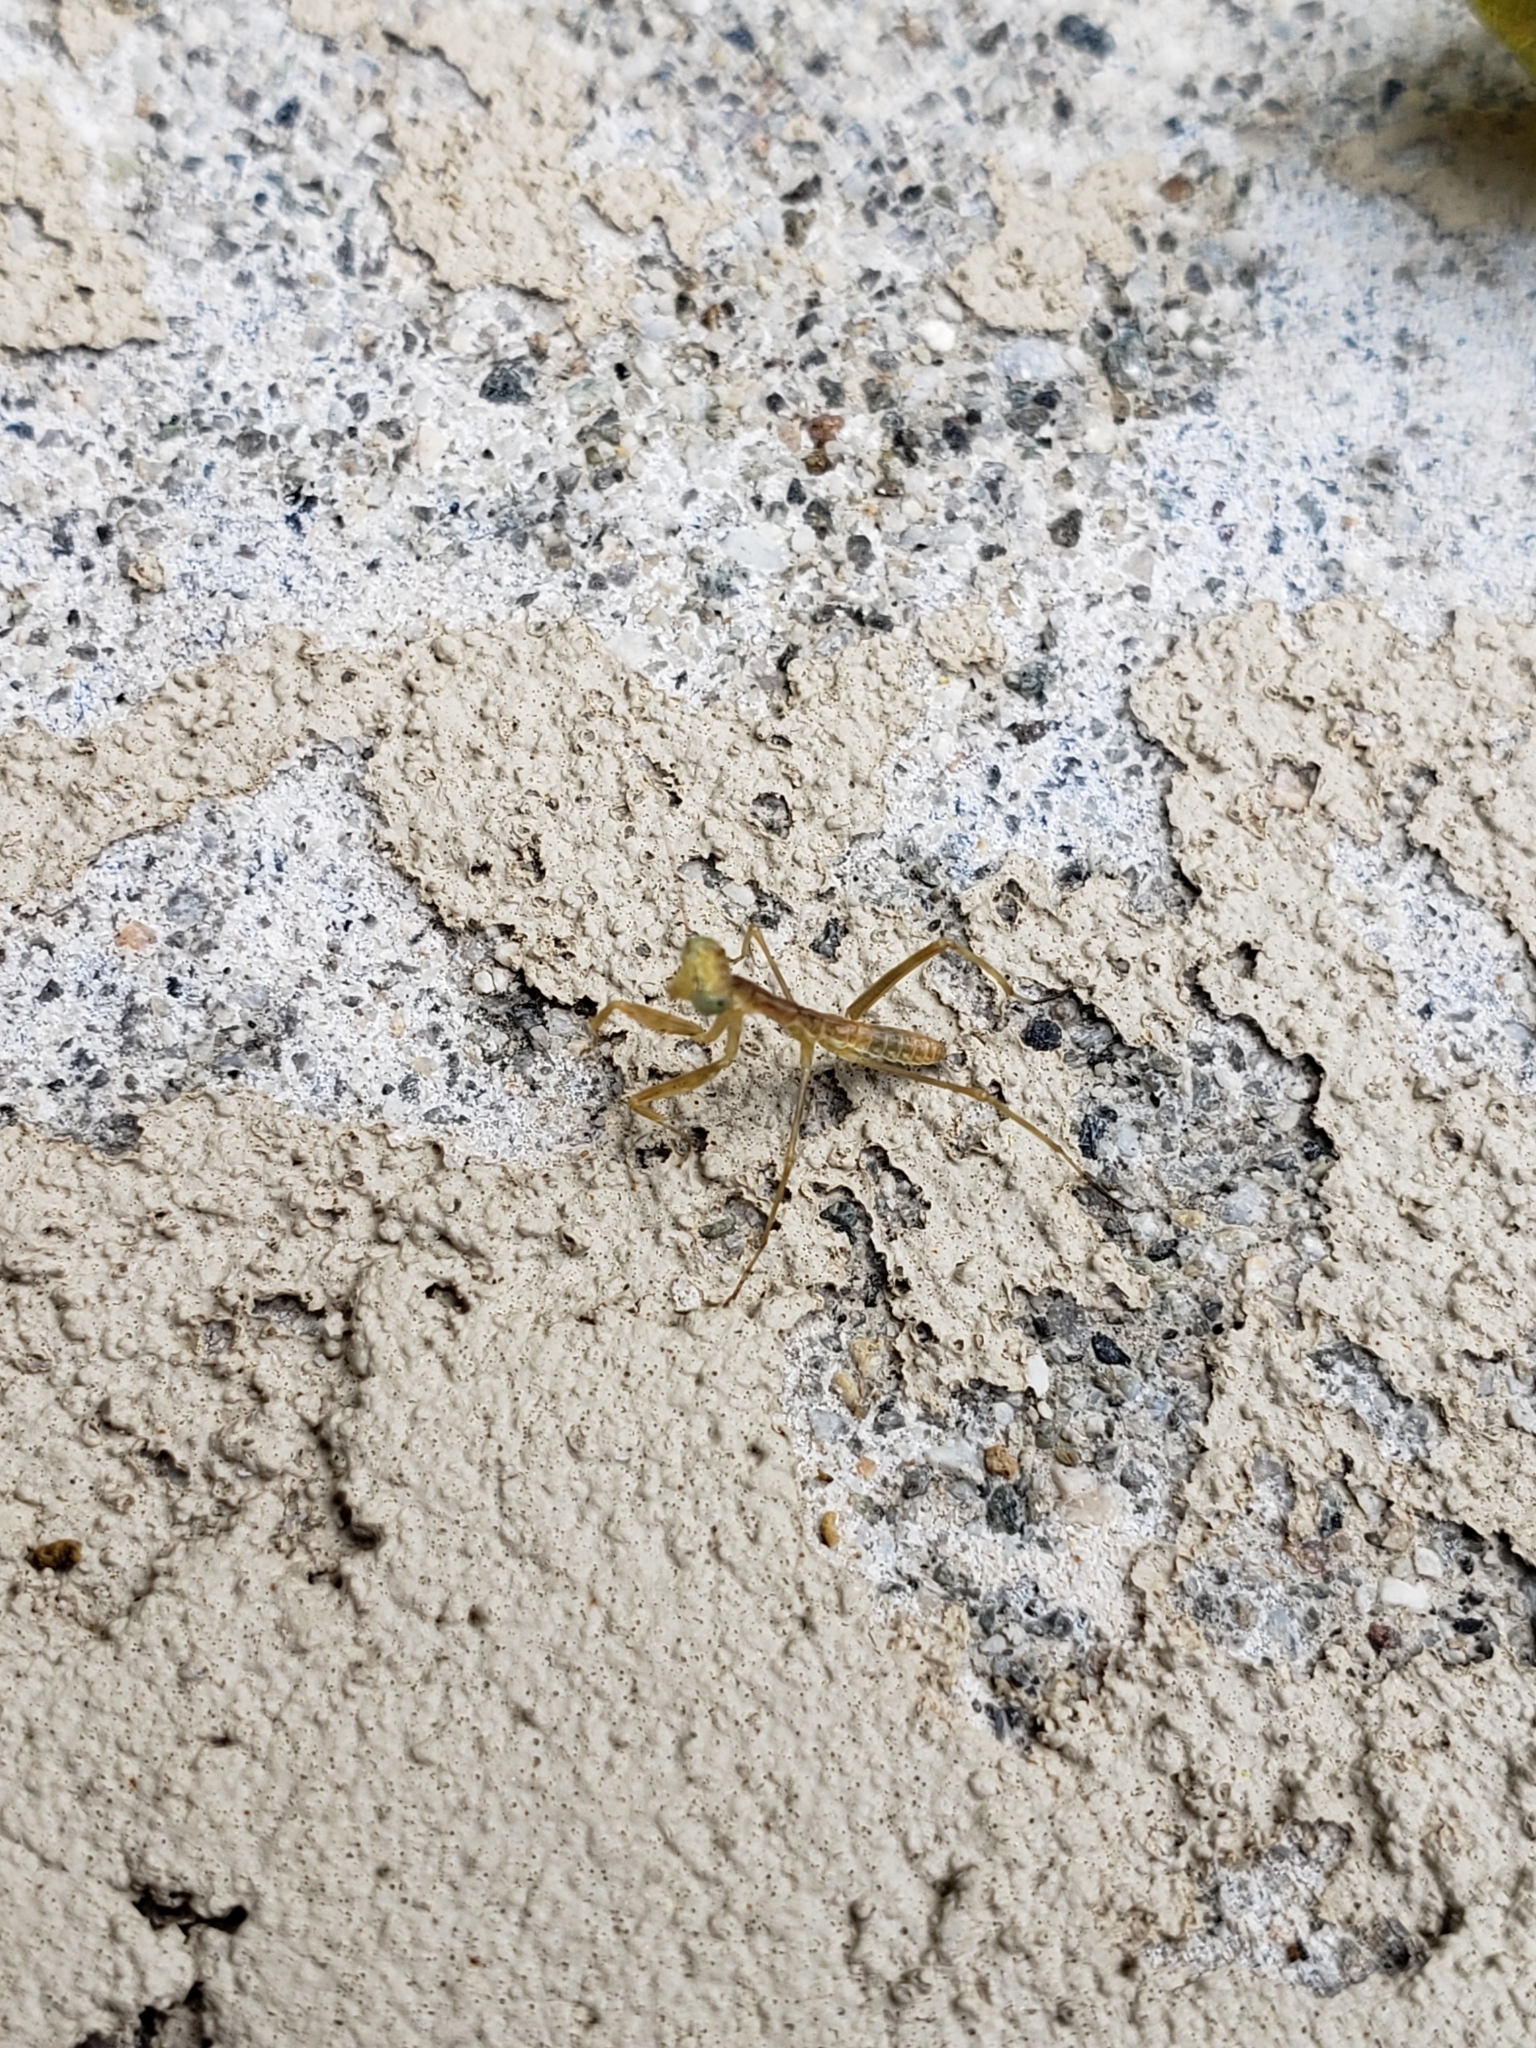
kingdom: Animalia
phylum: Arthropoda
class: Insecta
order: Mantodea
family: Mantidae
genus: Stagmomantis
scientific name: Stagmomantis limbata
